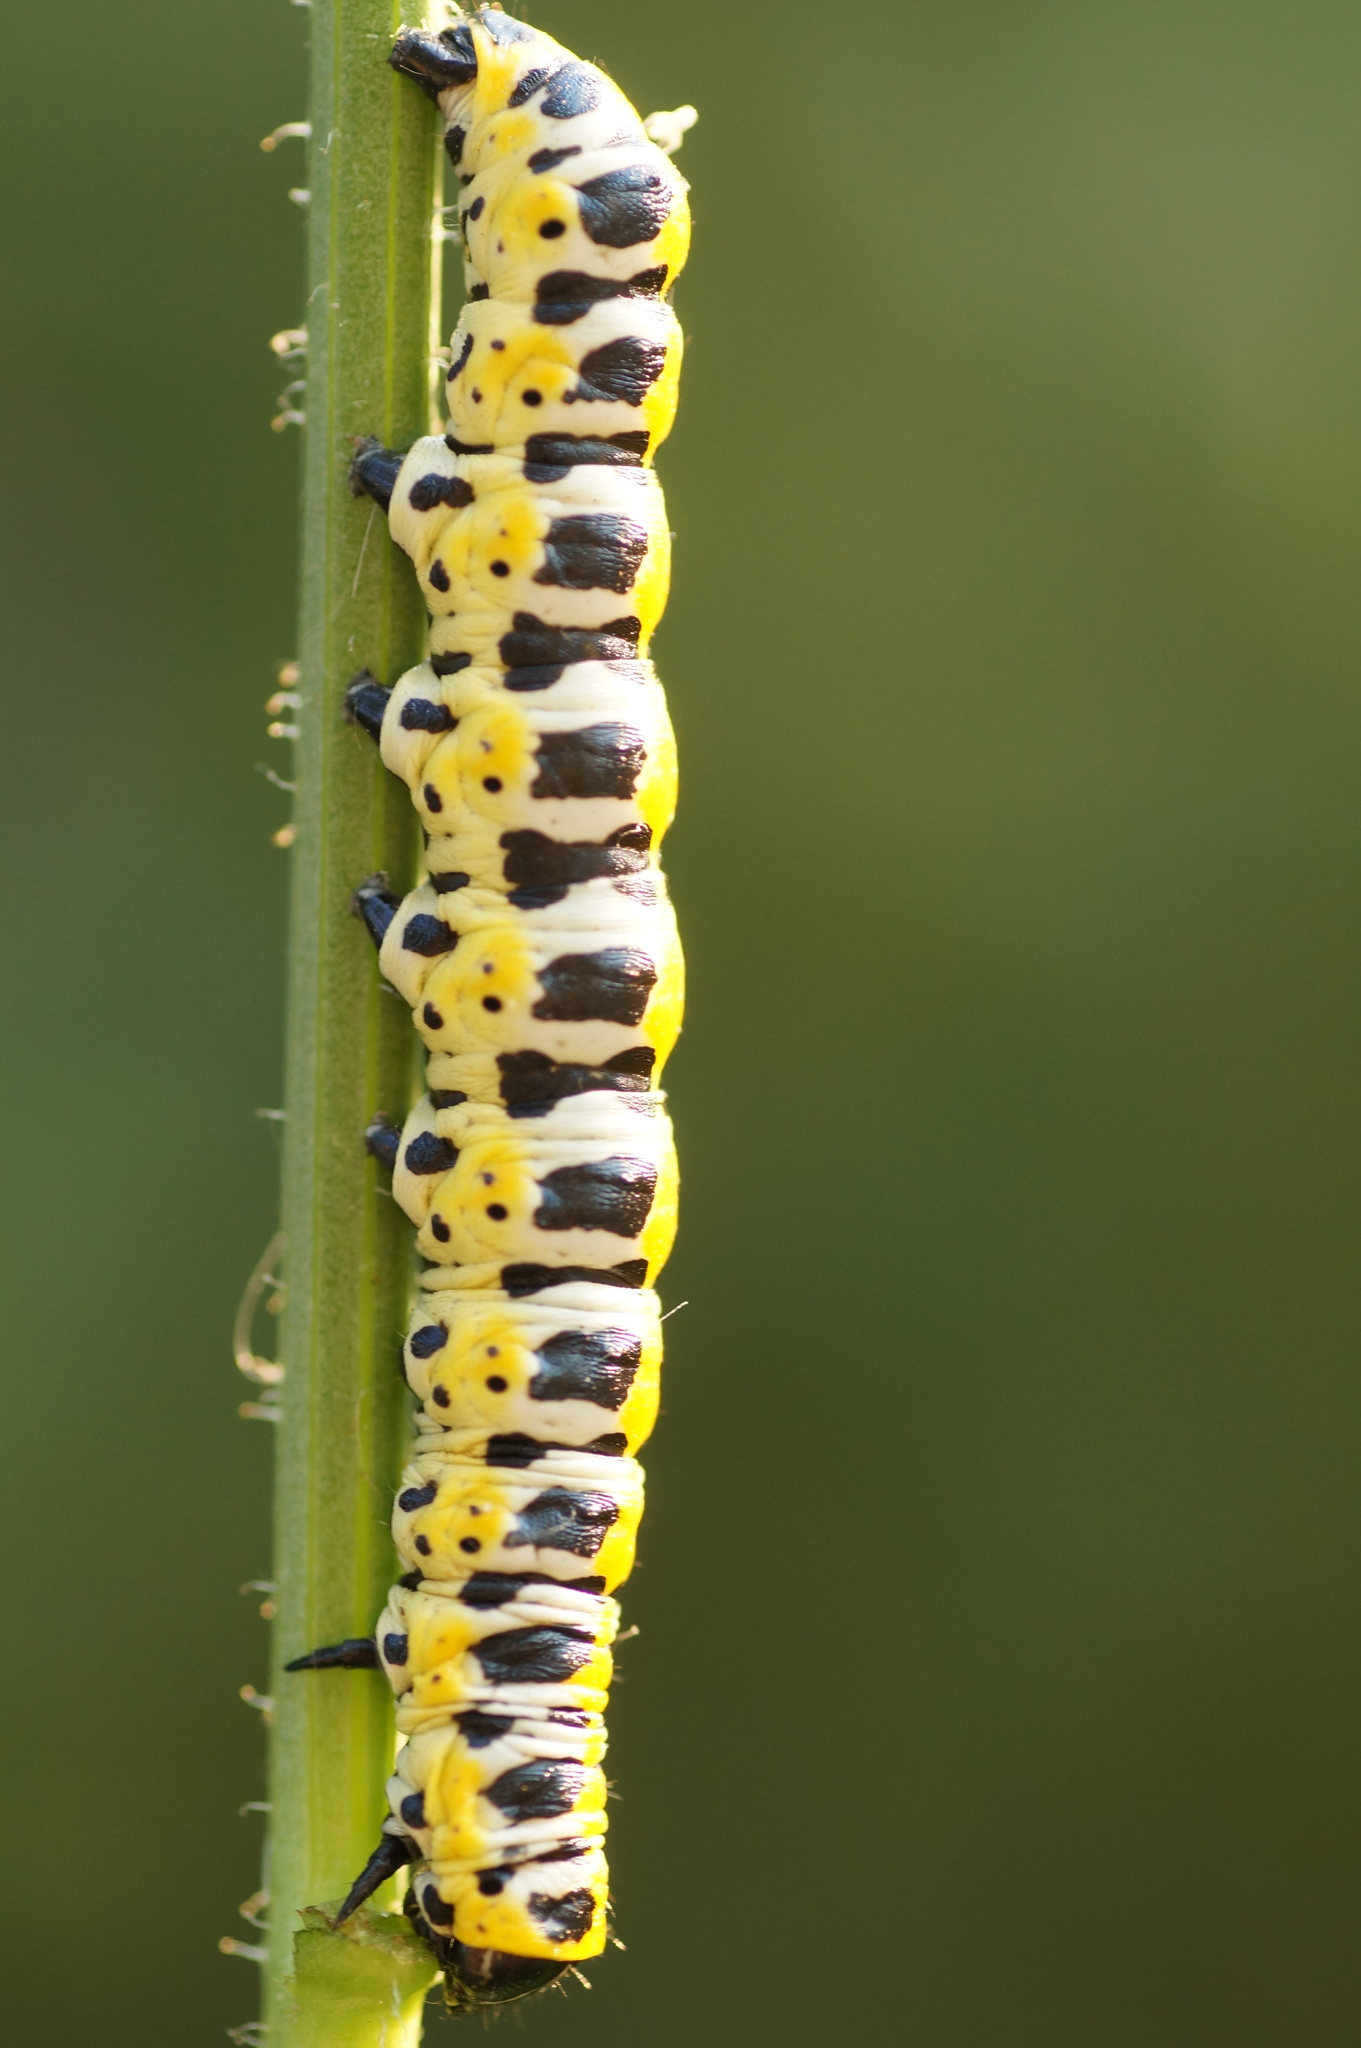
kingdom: Animalia
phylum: Arthropoda
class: Insecta
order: Lepidoptera
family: Noctuidae
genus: Cucullia
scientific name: Cucullia pustulata
